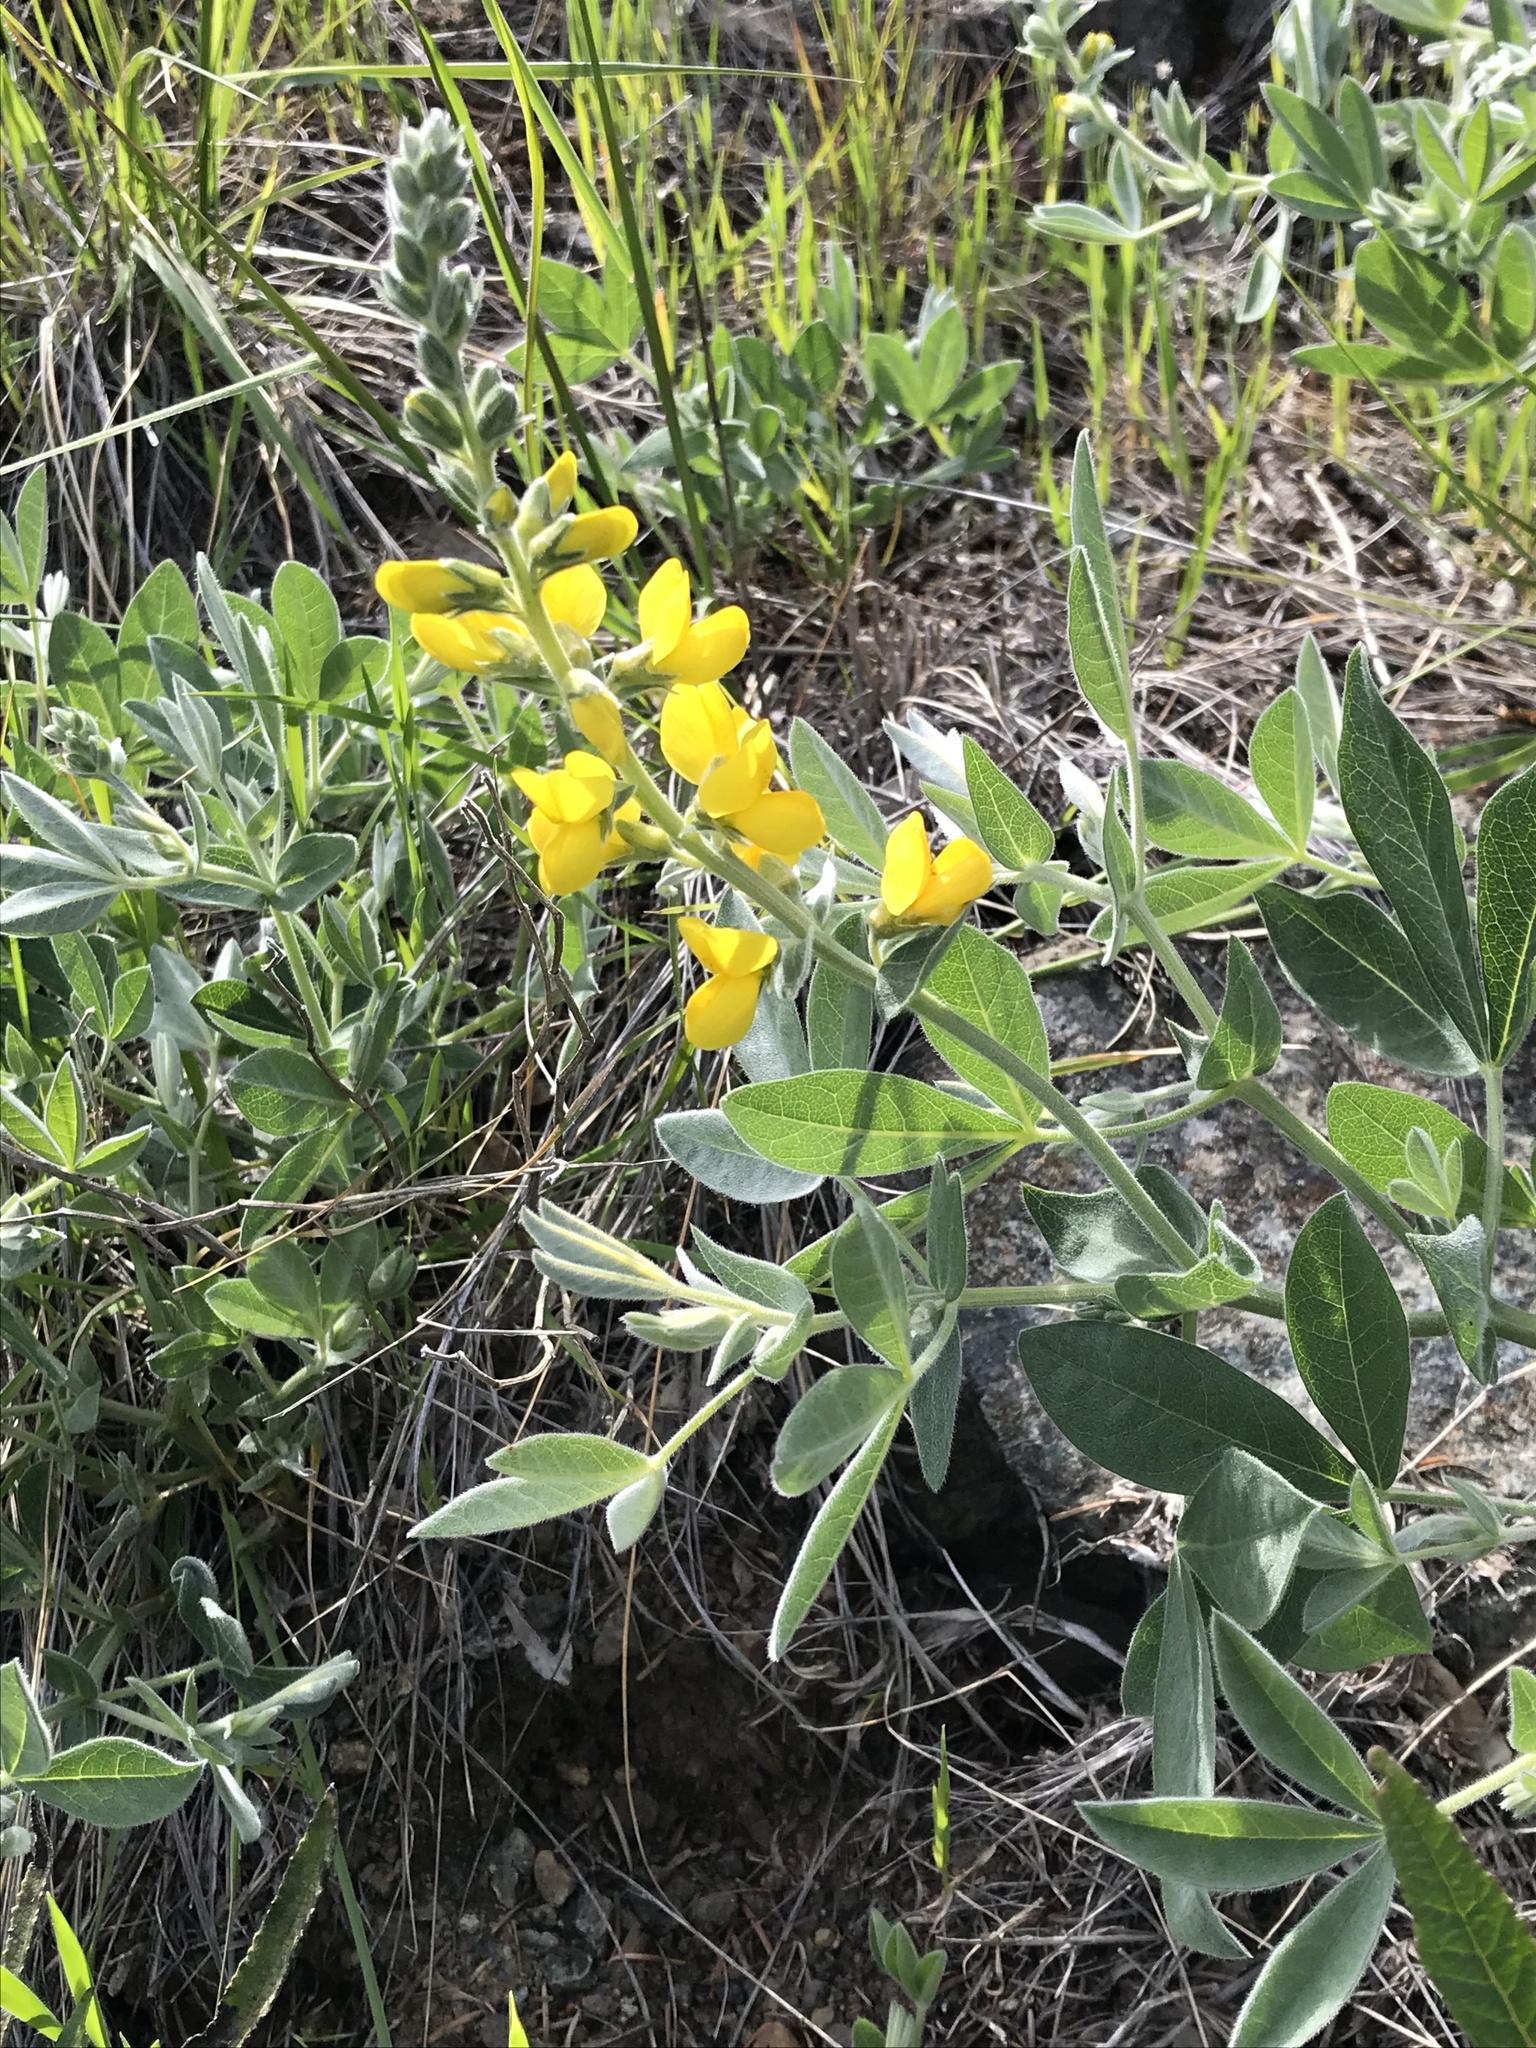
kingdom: Plantae
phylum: Tracheophyta
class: Magnoliopsida
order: Fabales
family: Fabaceae
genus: Thermopsis
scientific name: Thermopsis californica
